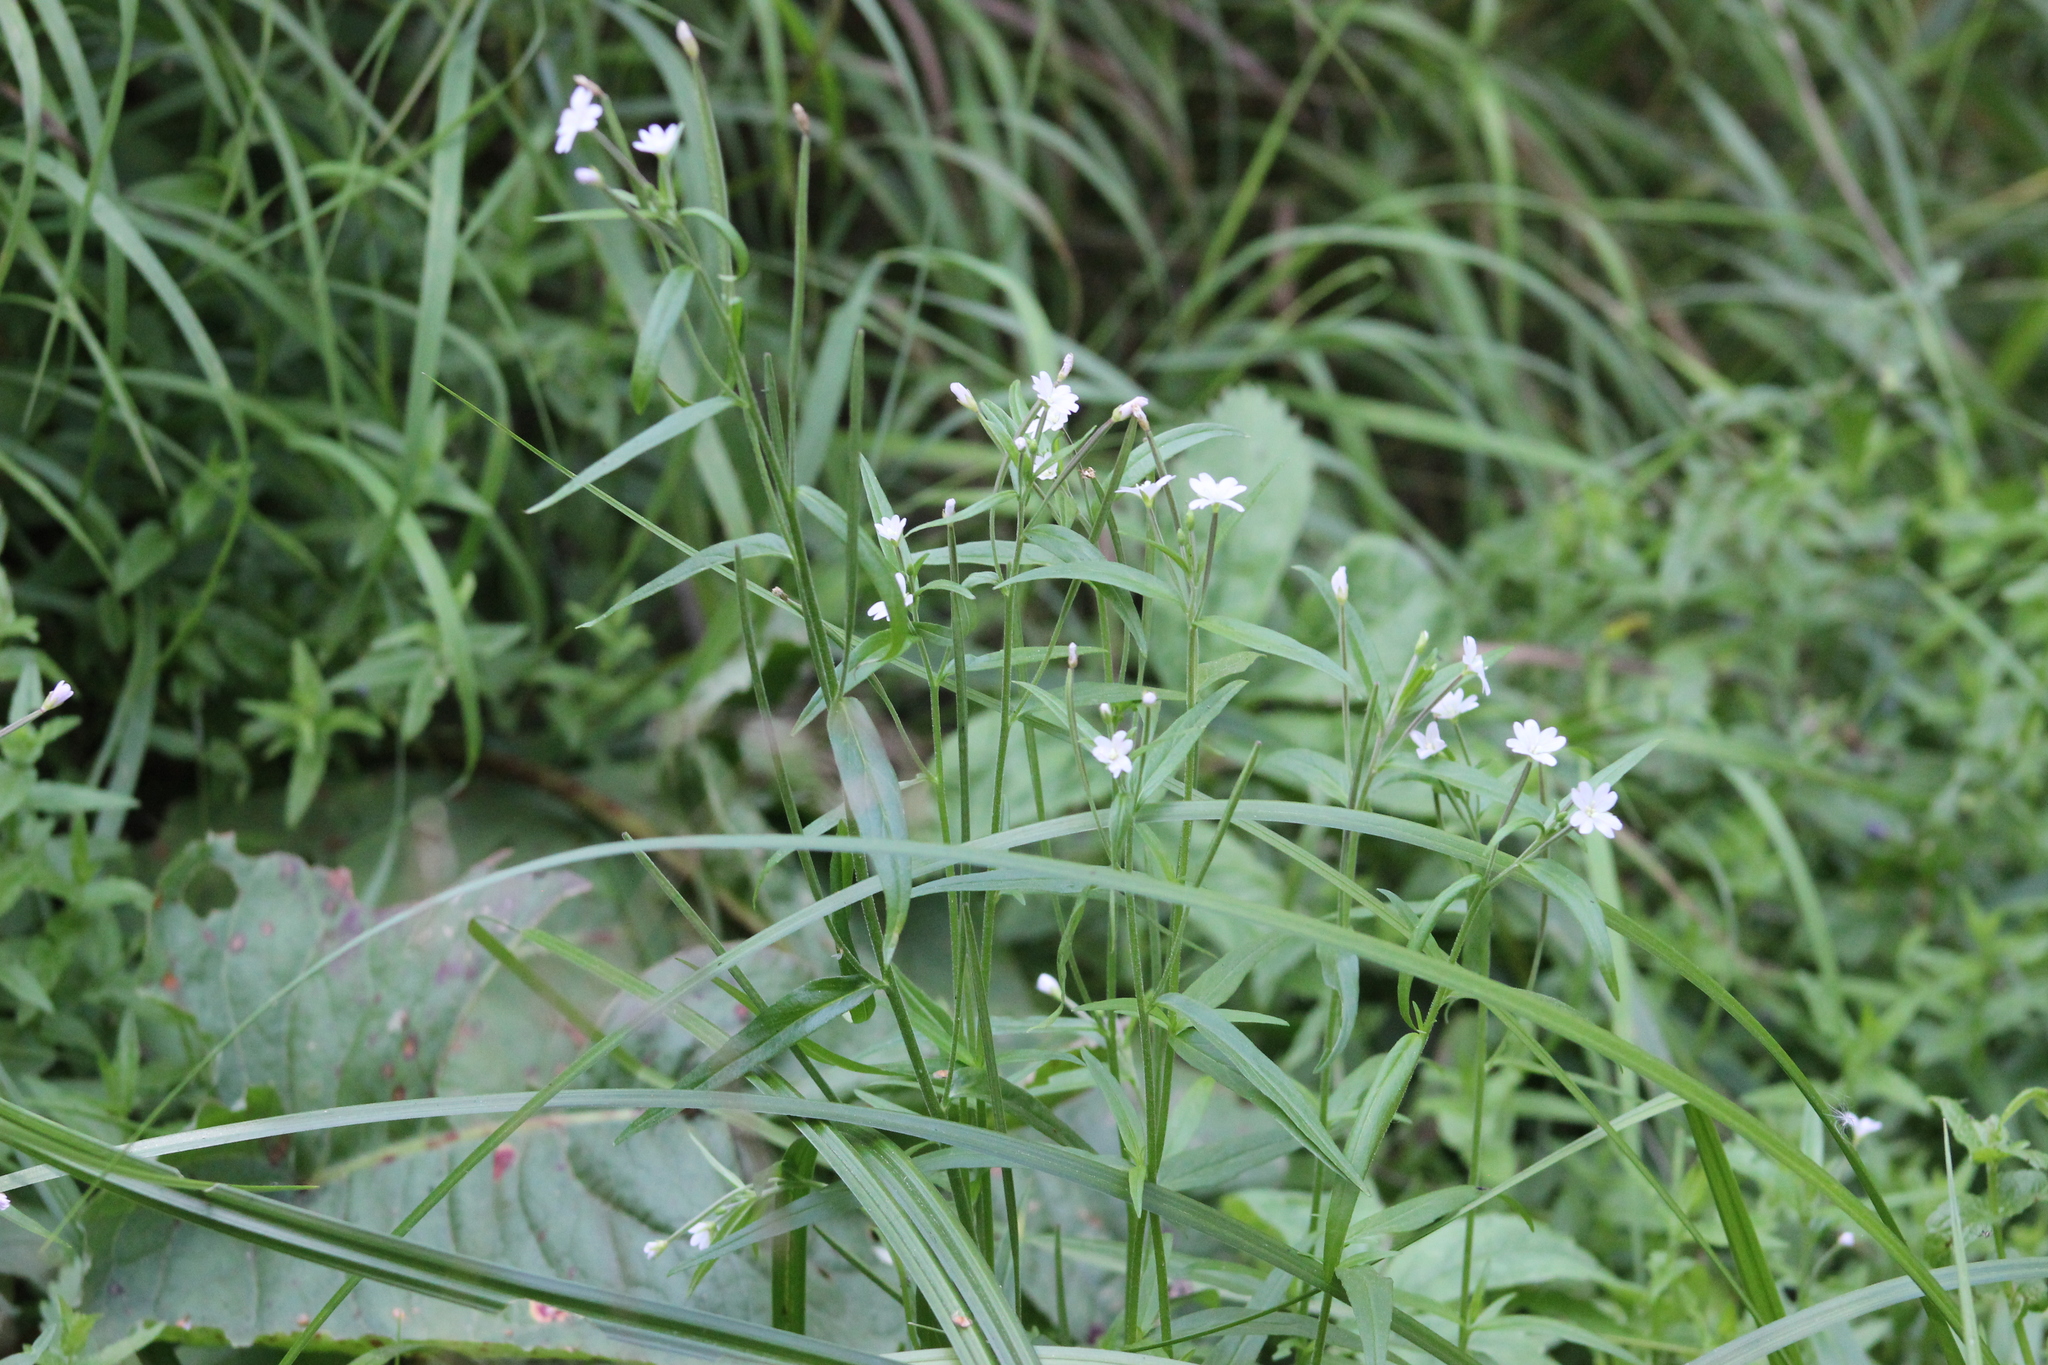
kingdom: Plantae
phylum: Tracheophyta
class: Magnoliopsida
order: Myrtales
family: Onagraceae
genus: Epilobium
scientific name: Epilobium palustre
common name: Marsh willowherb
